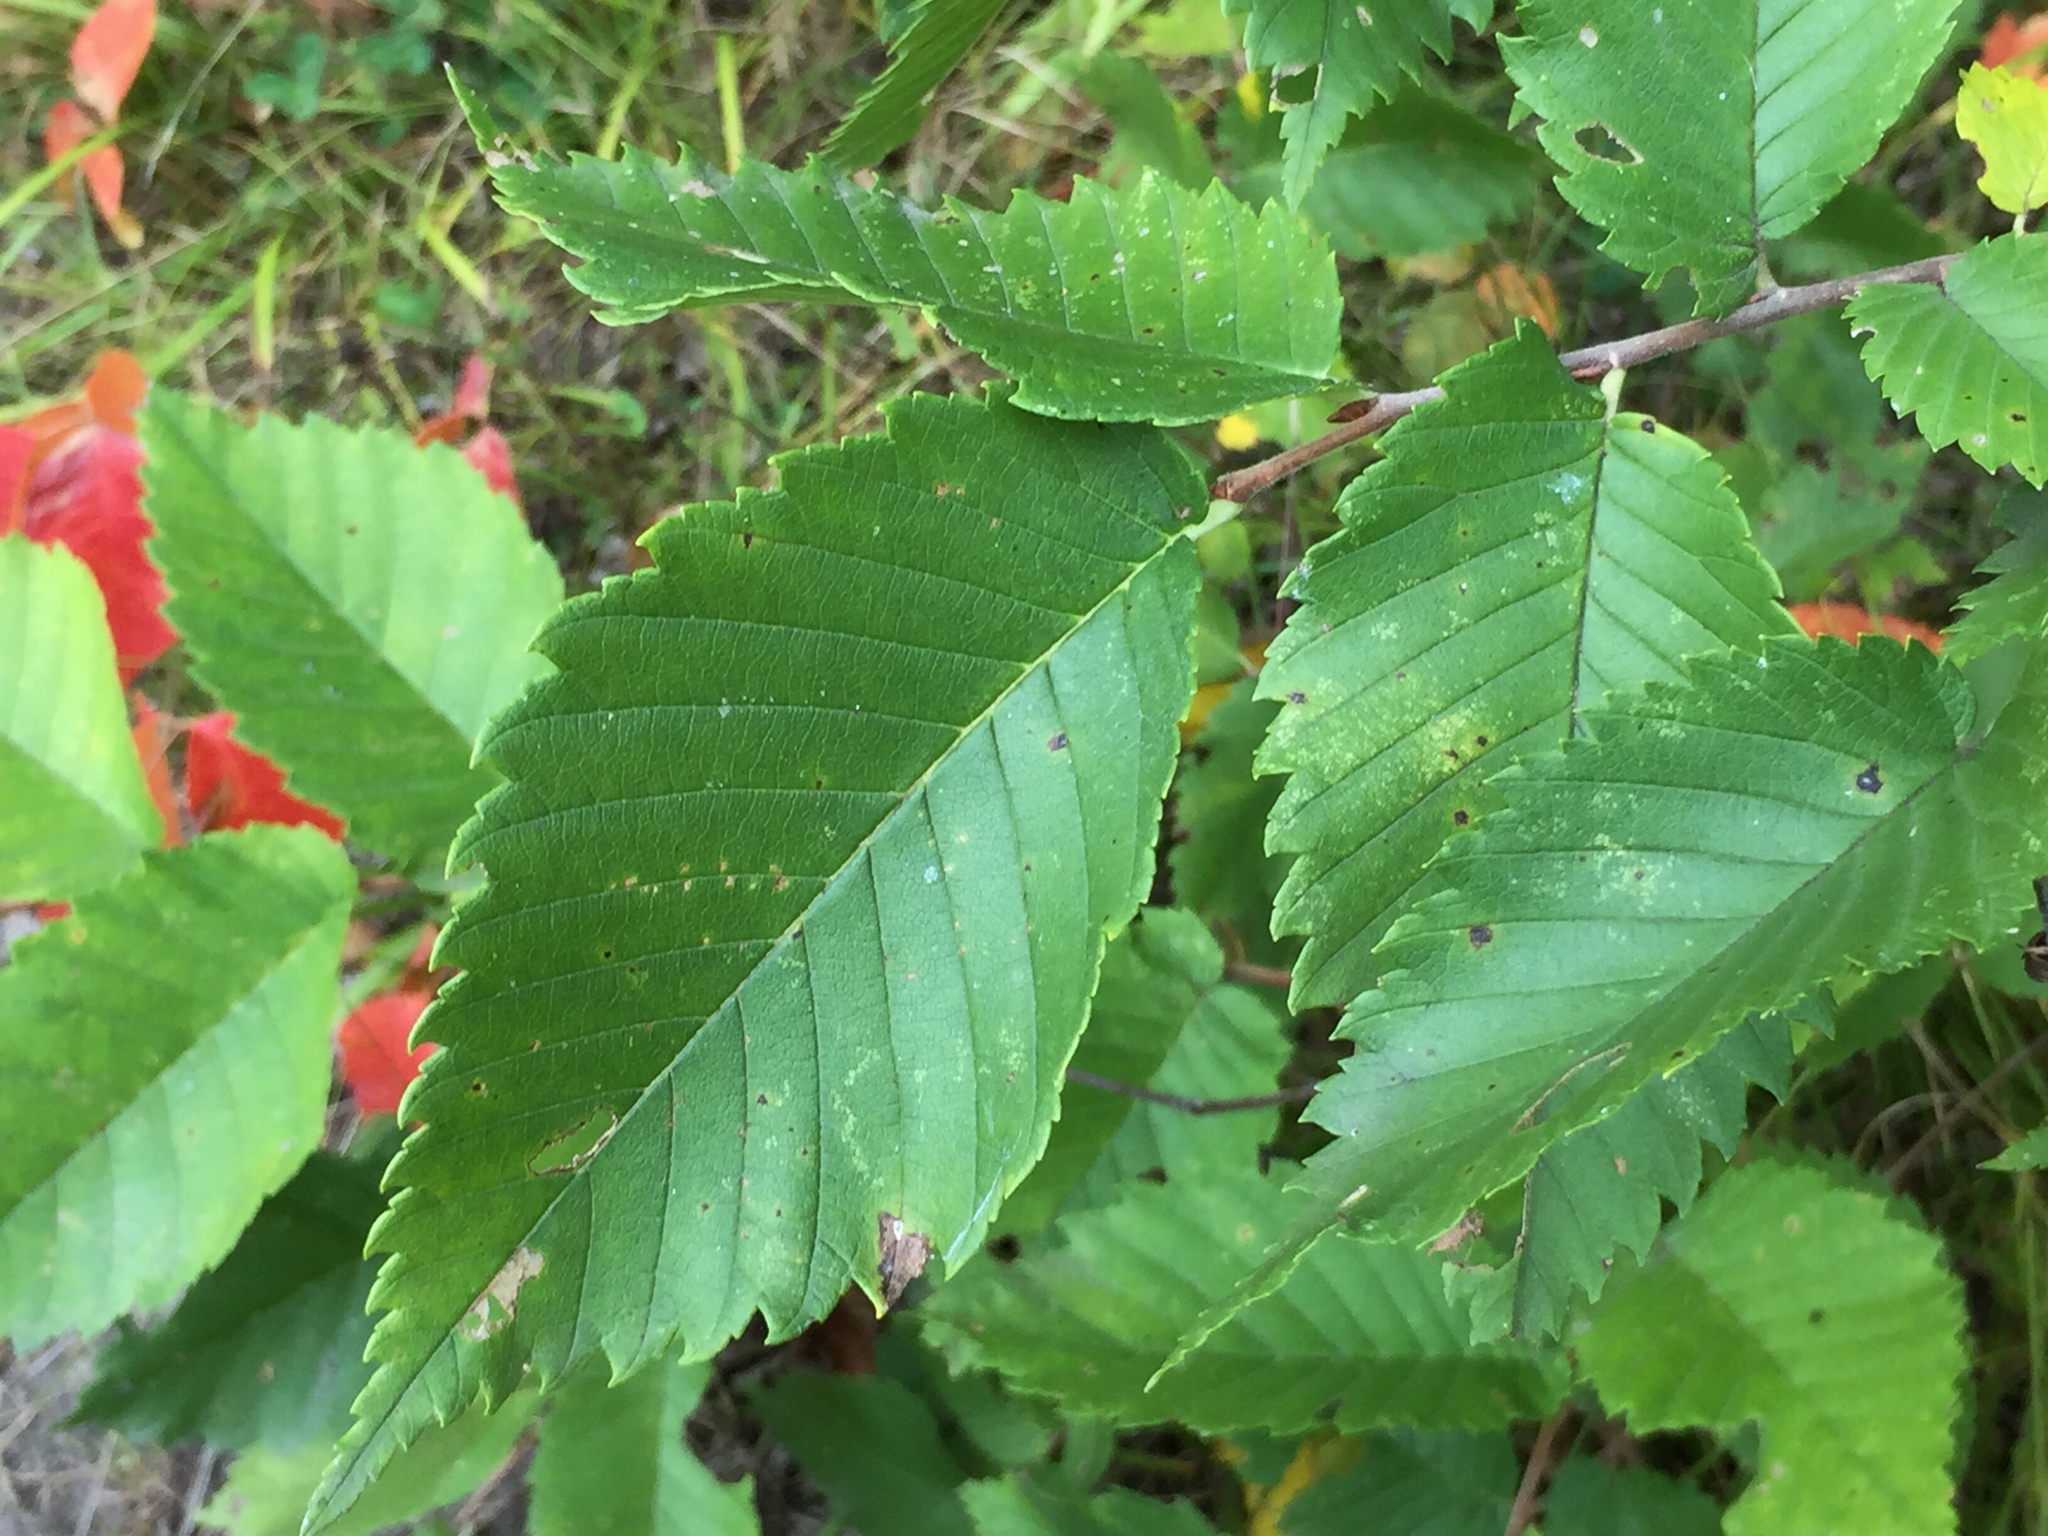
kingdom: Plantae
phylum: Tracheophyta
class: Magnoliopsida
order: Rosales
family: Ulmaceae
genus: Ulmus
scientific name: Ulmus americana
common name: American elm
